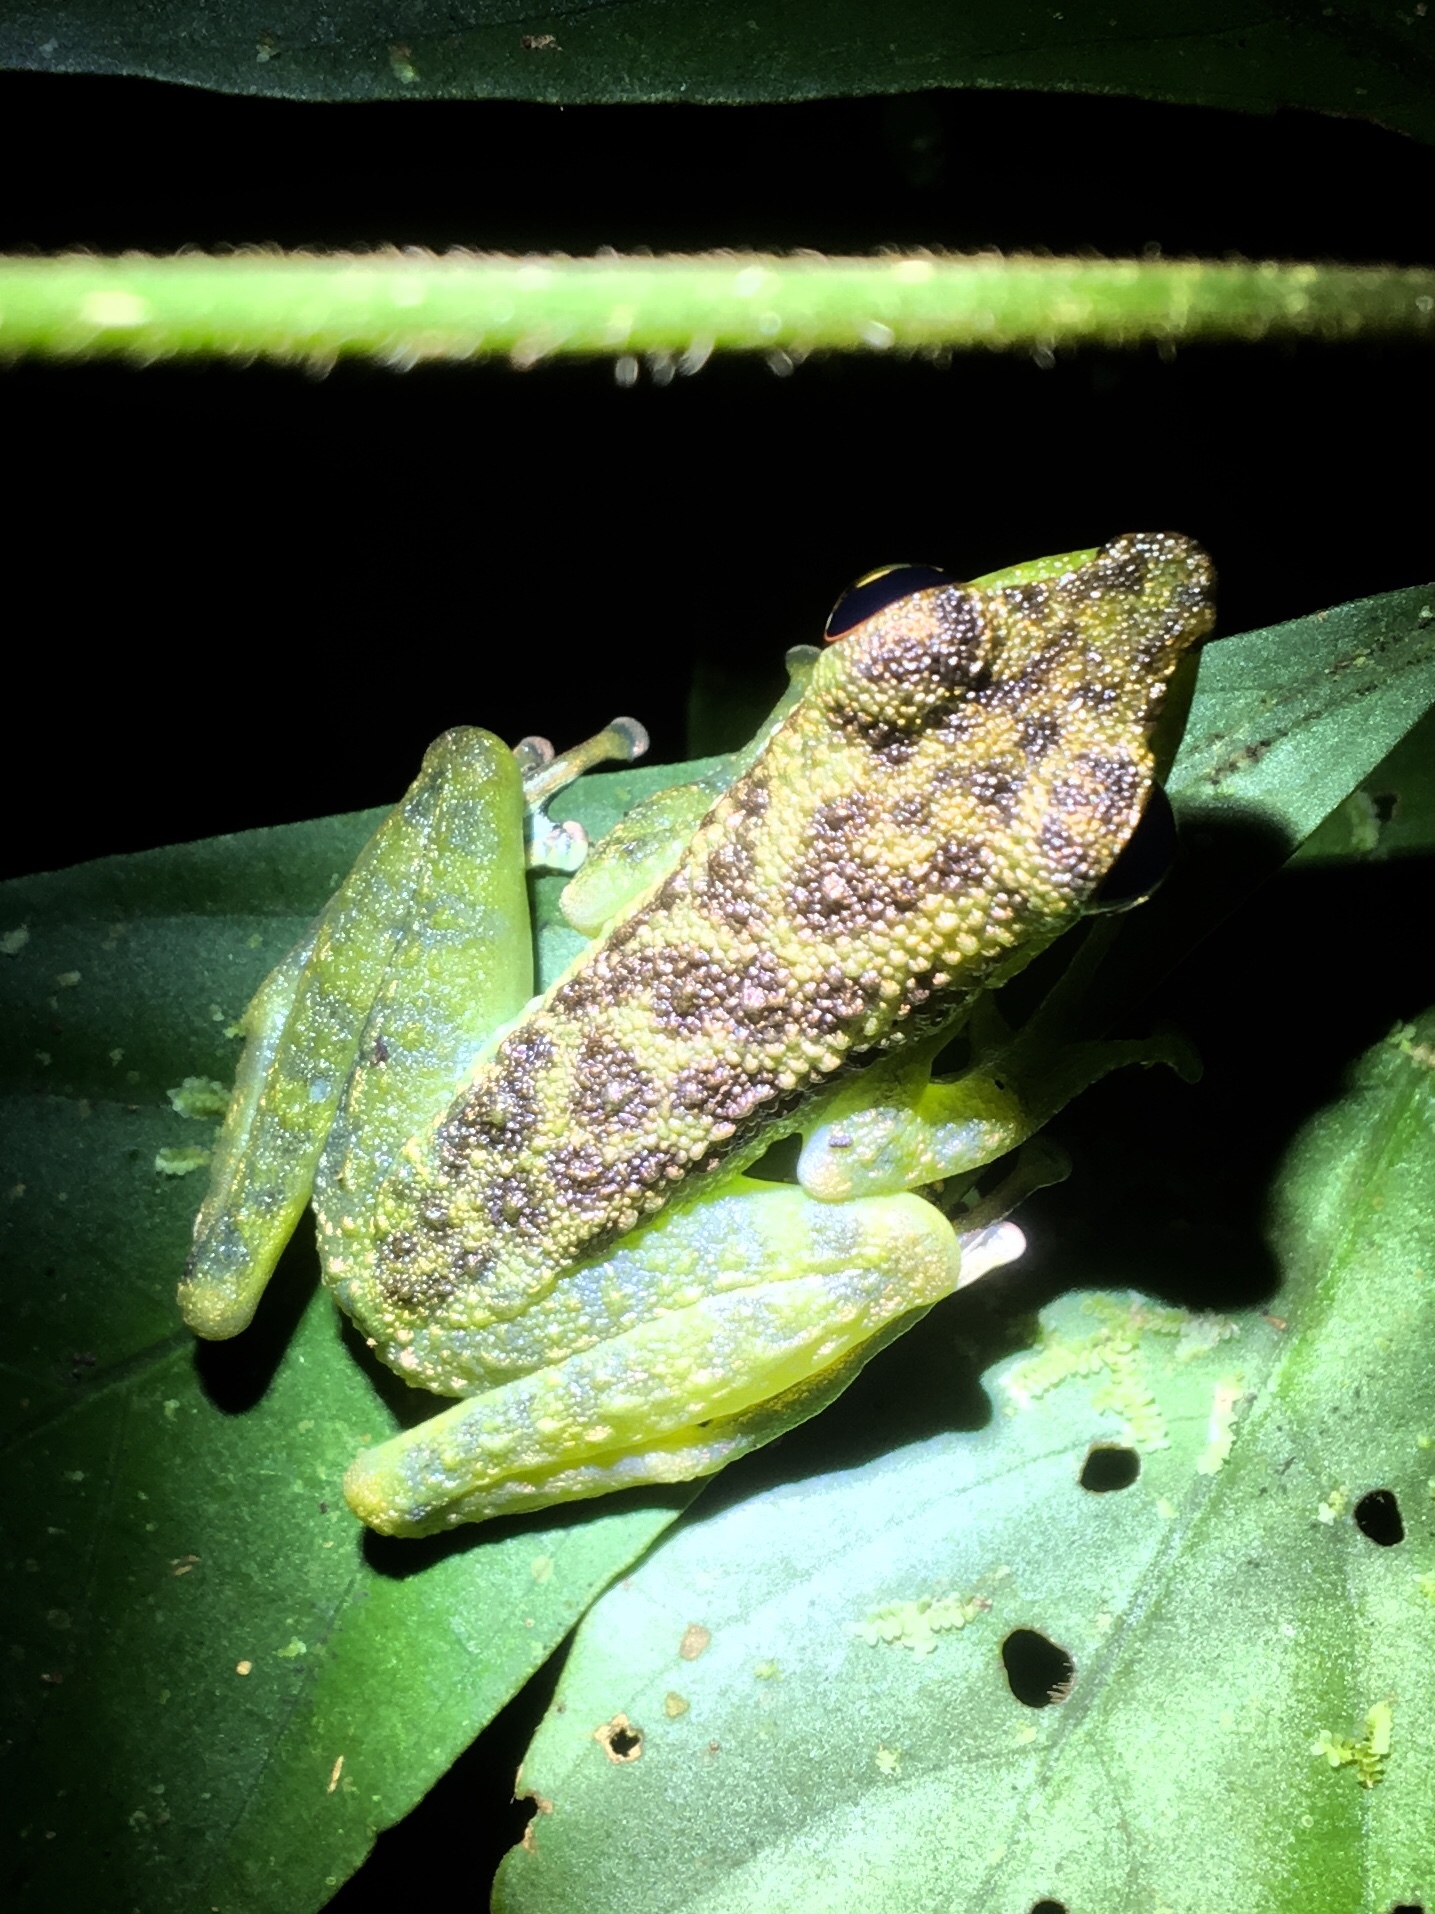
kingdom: Animalia
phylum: Chordata
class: Amphibia
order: Anura
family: Ranidae
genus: Staurois
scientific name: Staurois guttatus
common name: Black-spotted rock frog
